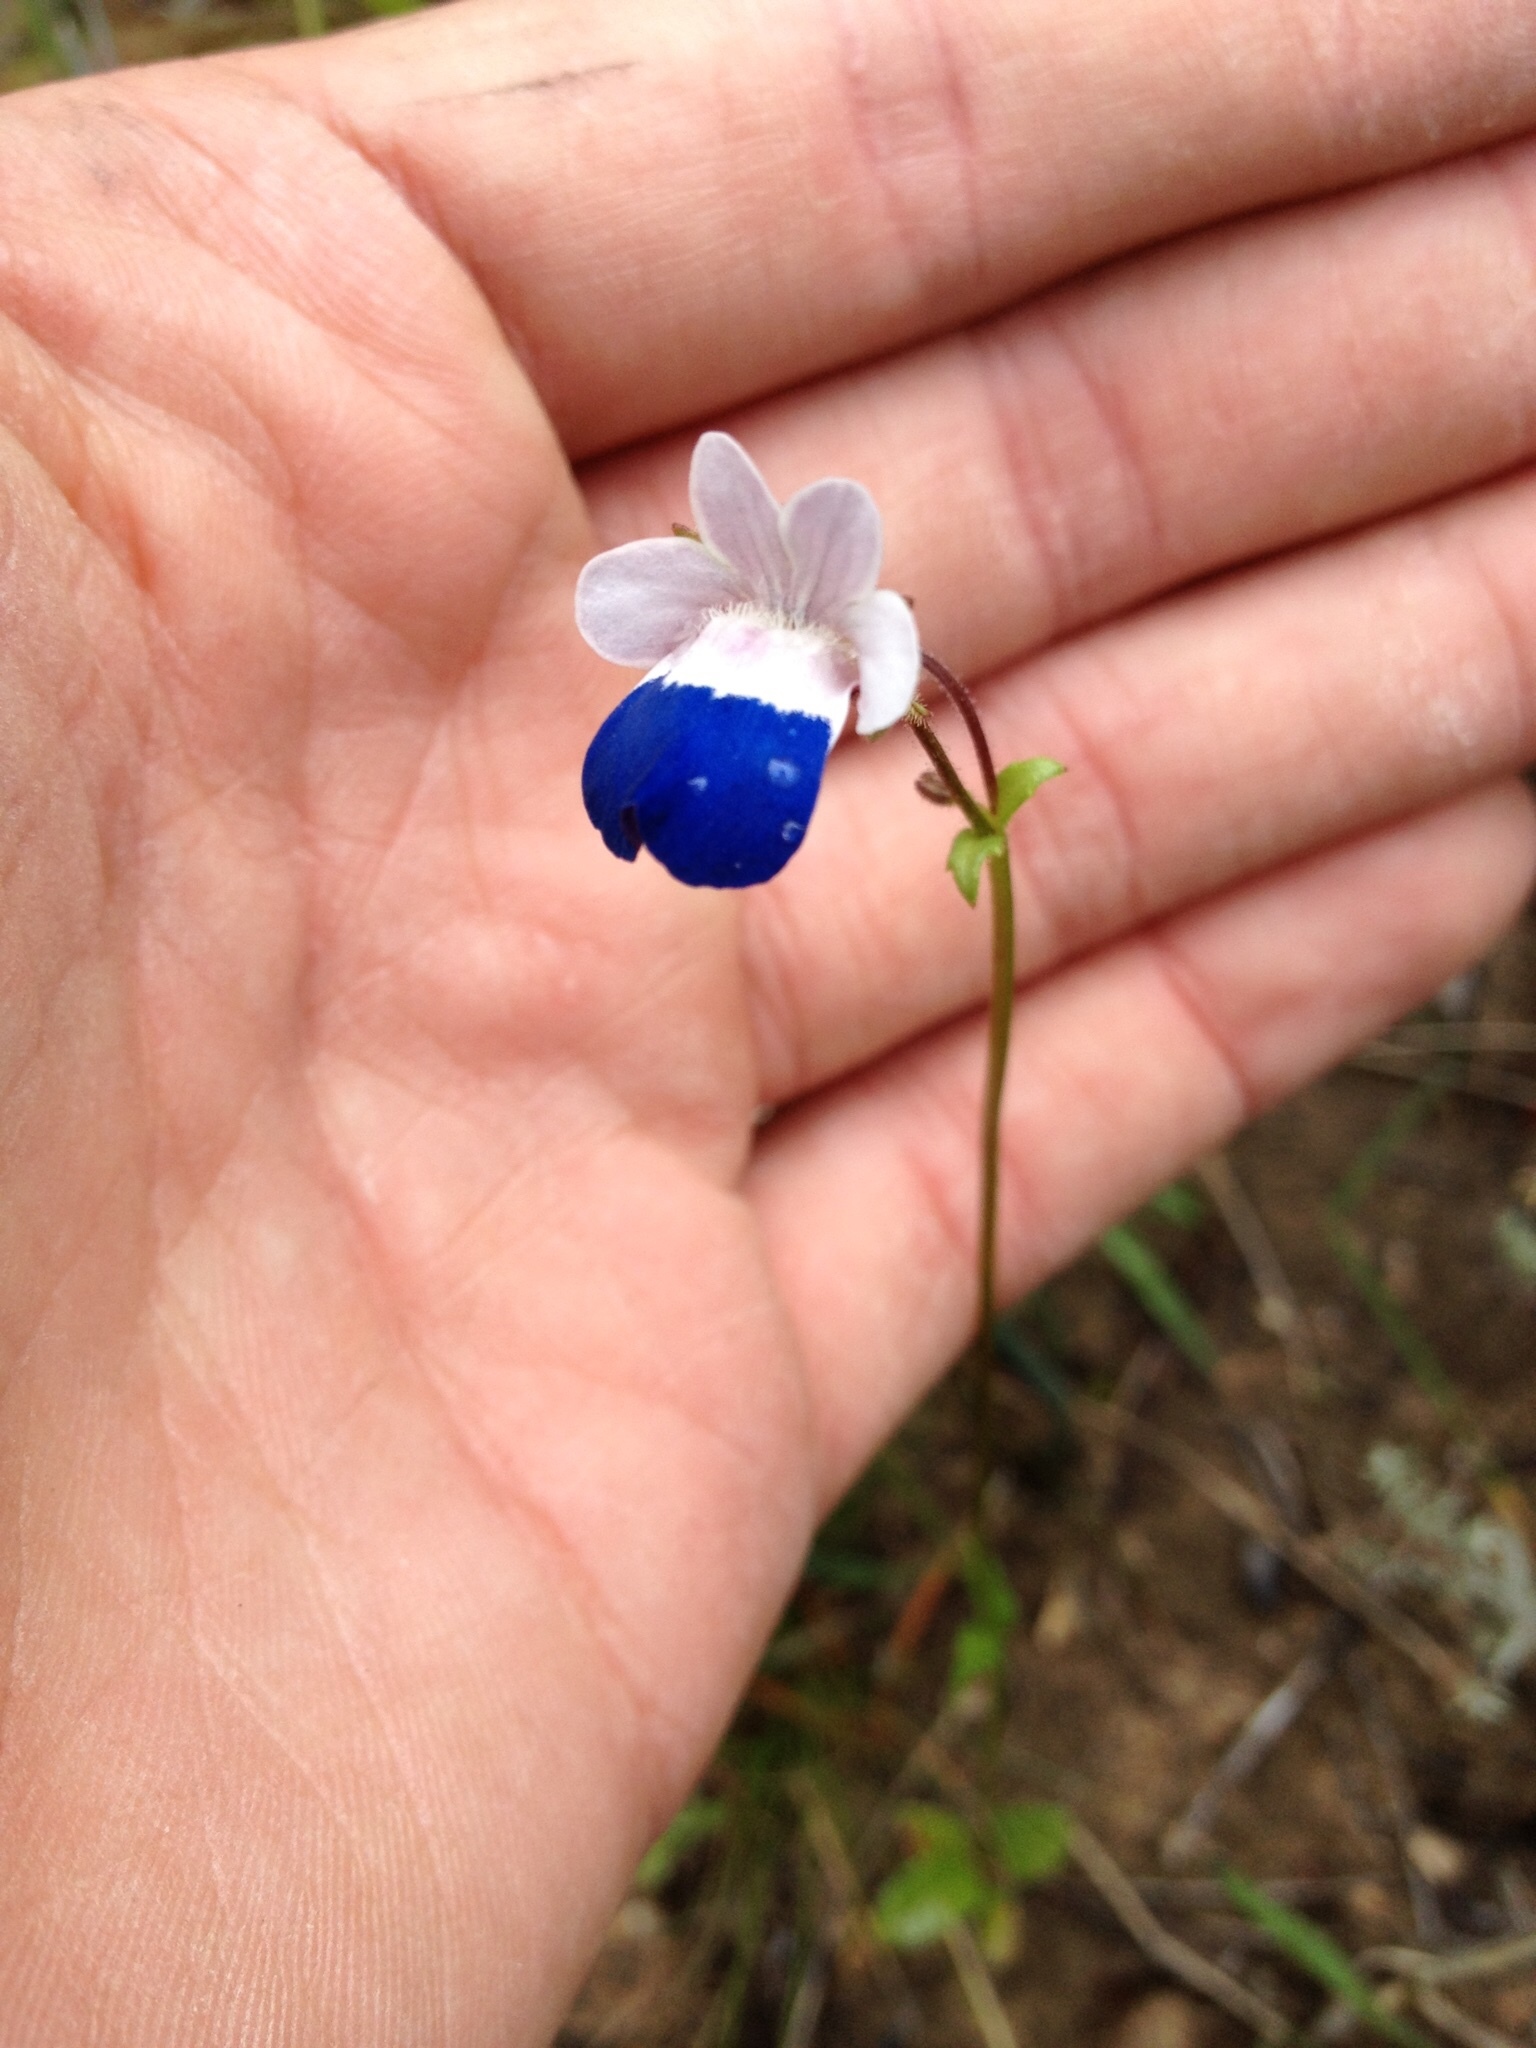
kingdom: Plantae
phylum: Tracheophyta
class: Magnoliopsida
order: Lamiales
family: Scrophulariaceae
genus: Nemesia
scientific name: Nemesia barbata
